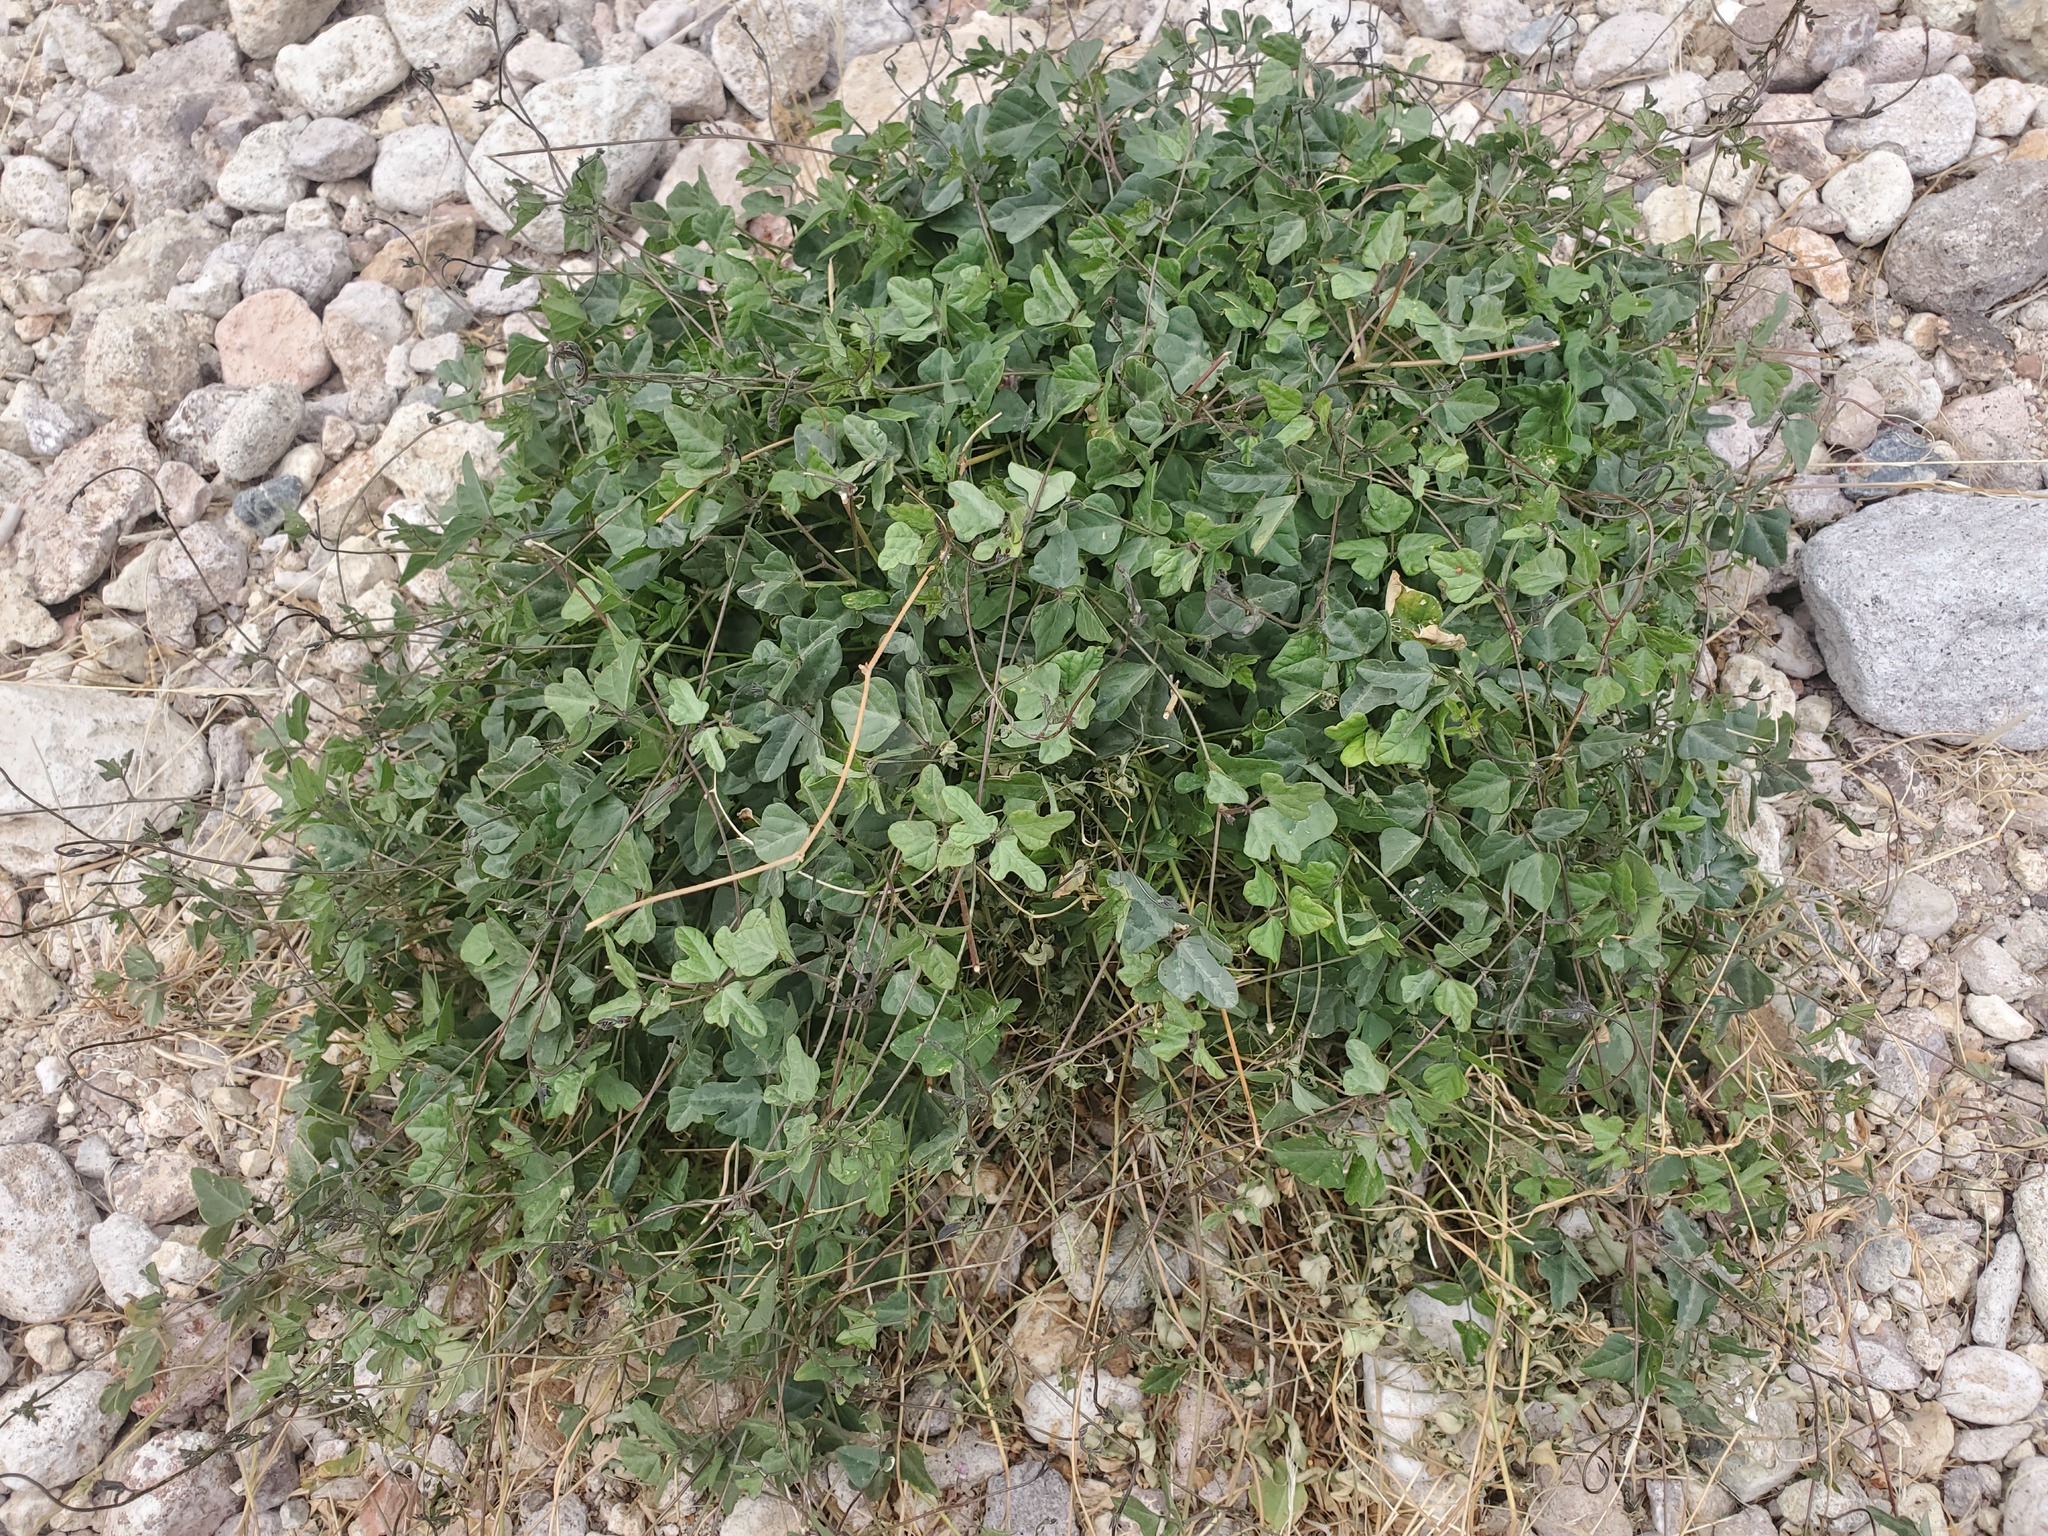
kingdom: Plantae
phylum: Tracheophyta
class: Magnoliopsida
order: Fabales
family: Fabaceae
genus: Phaseolus
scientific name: Phaseolus filiformis
